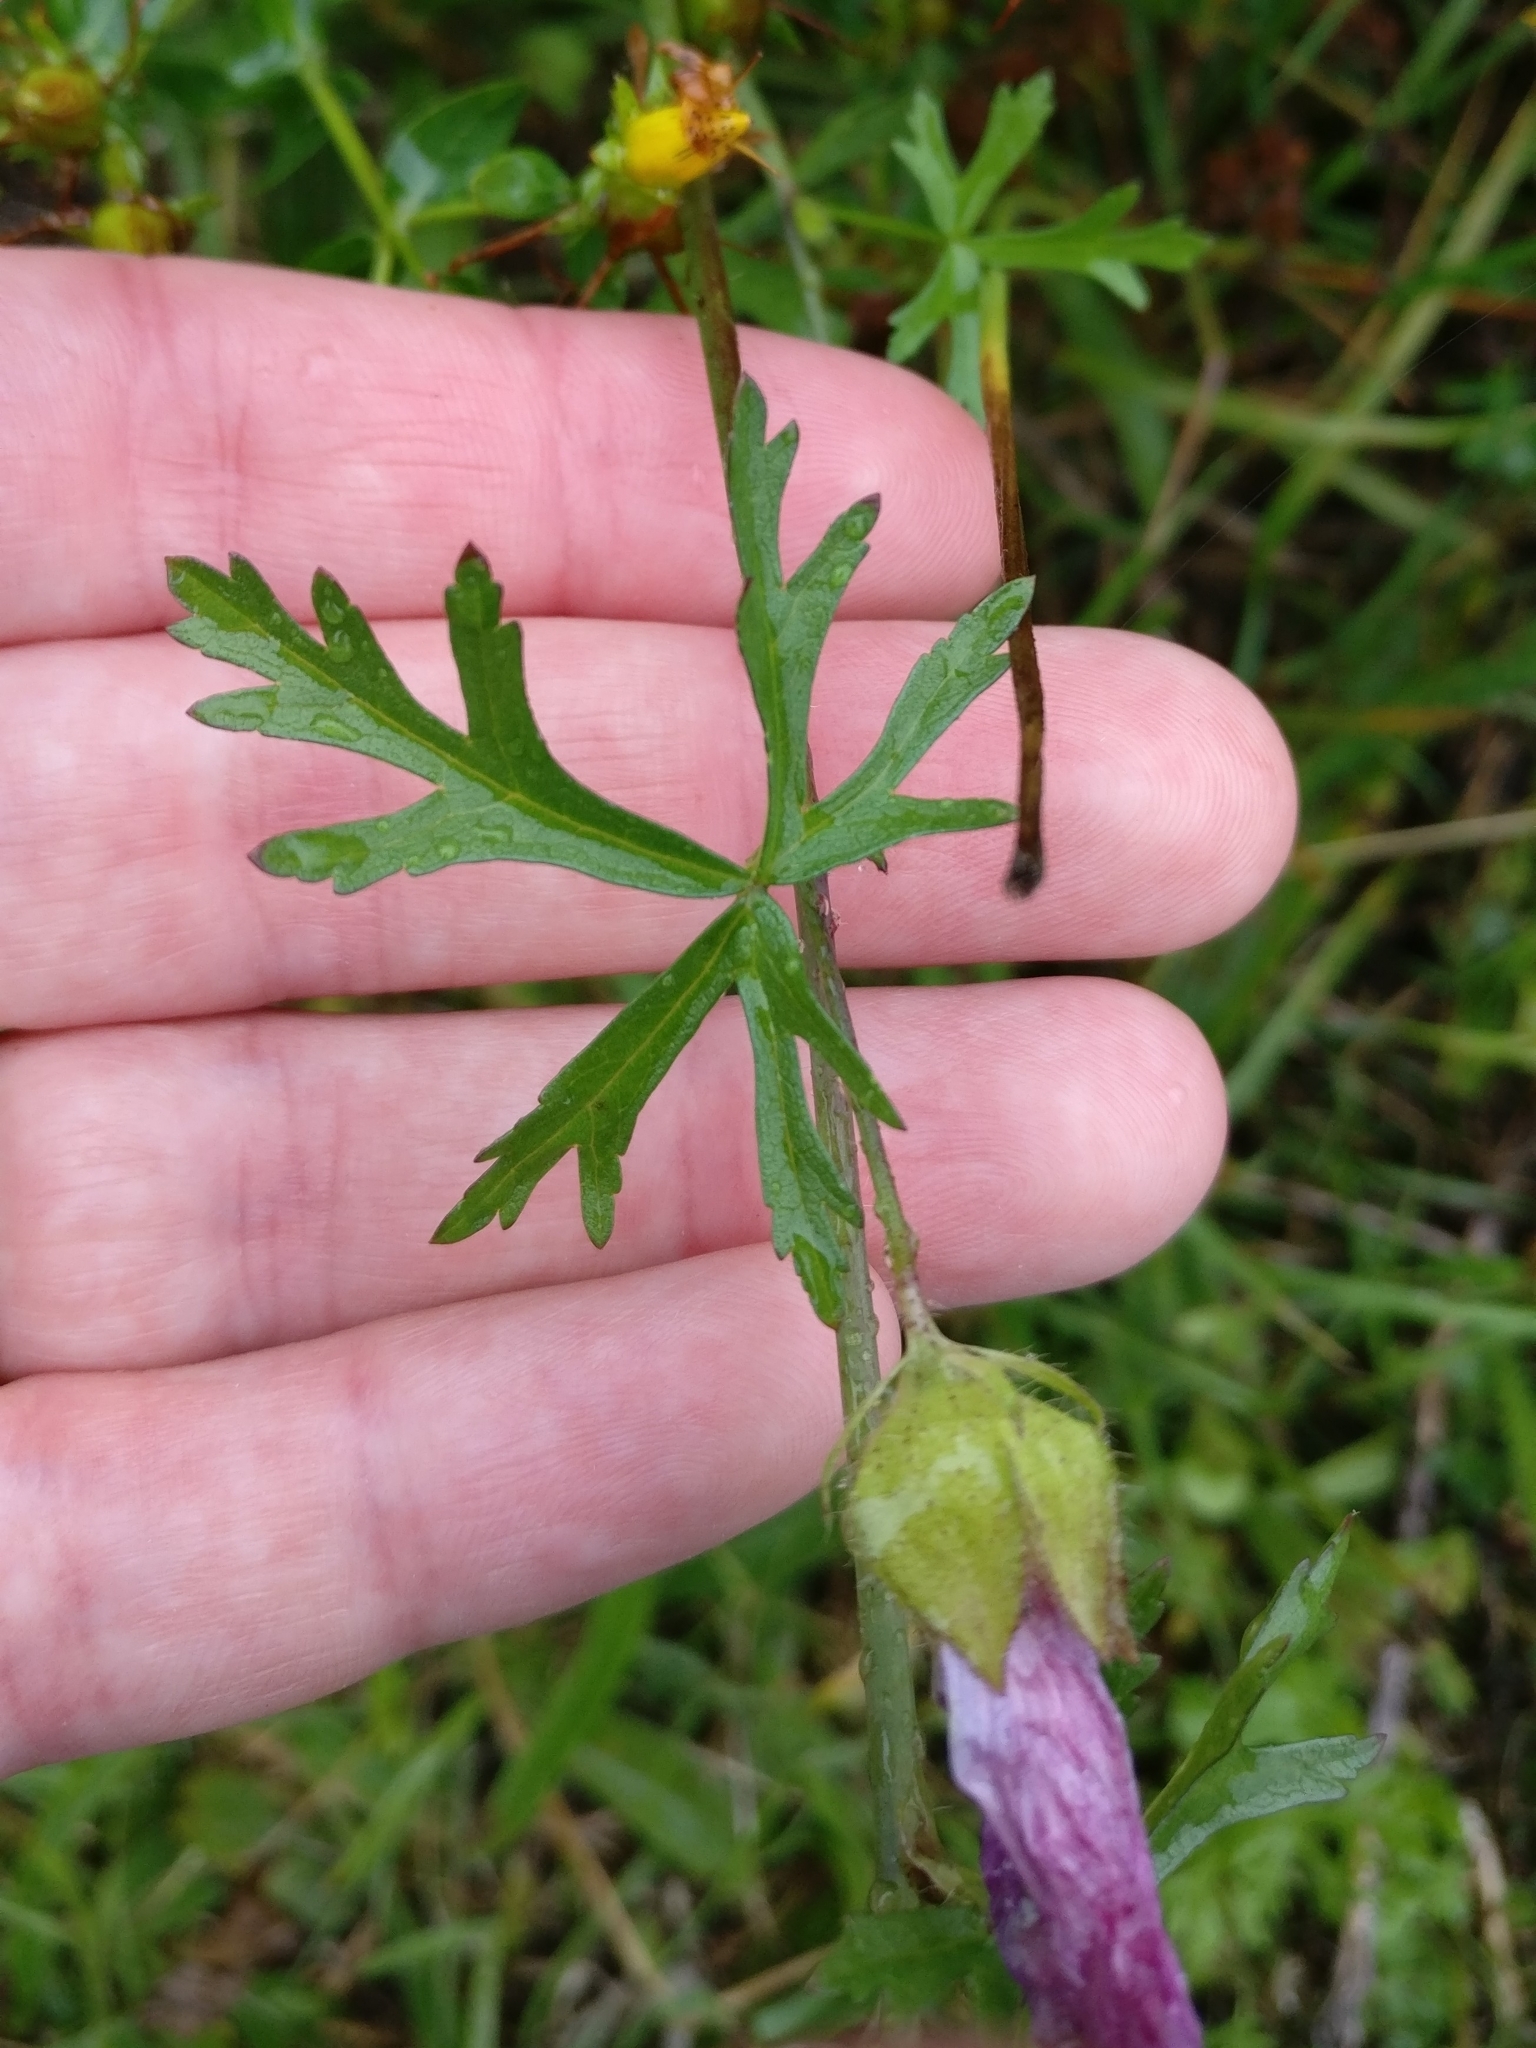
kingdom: Plantae
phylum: Tracheophyta
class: Magnoliopsida
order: Malvales
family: Malvaceae
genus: Malva
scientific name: Malva moschata
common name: Musk mallow
